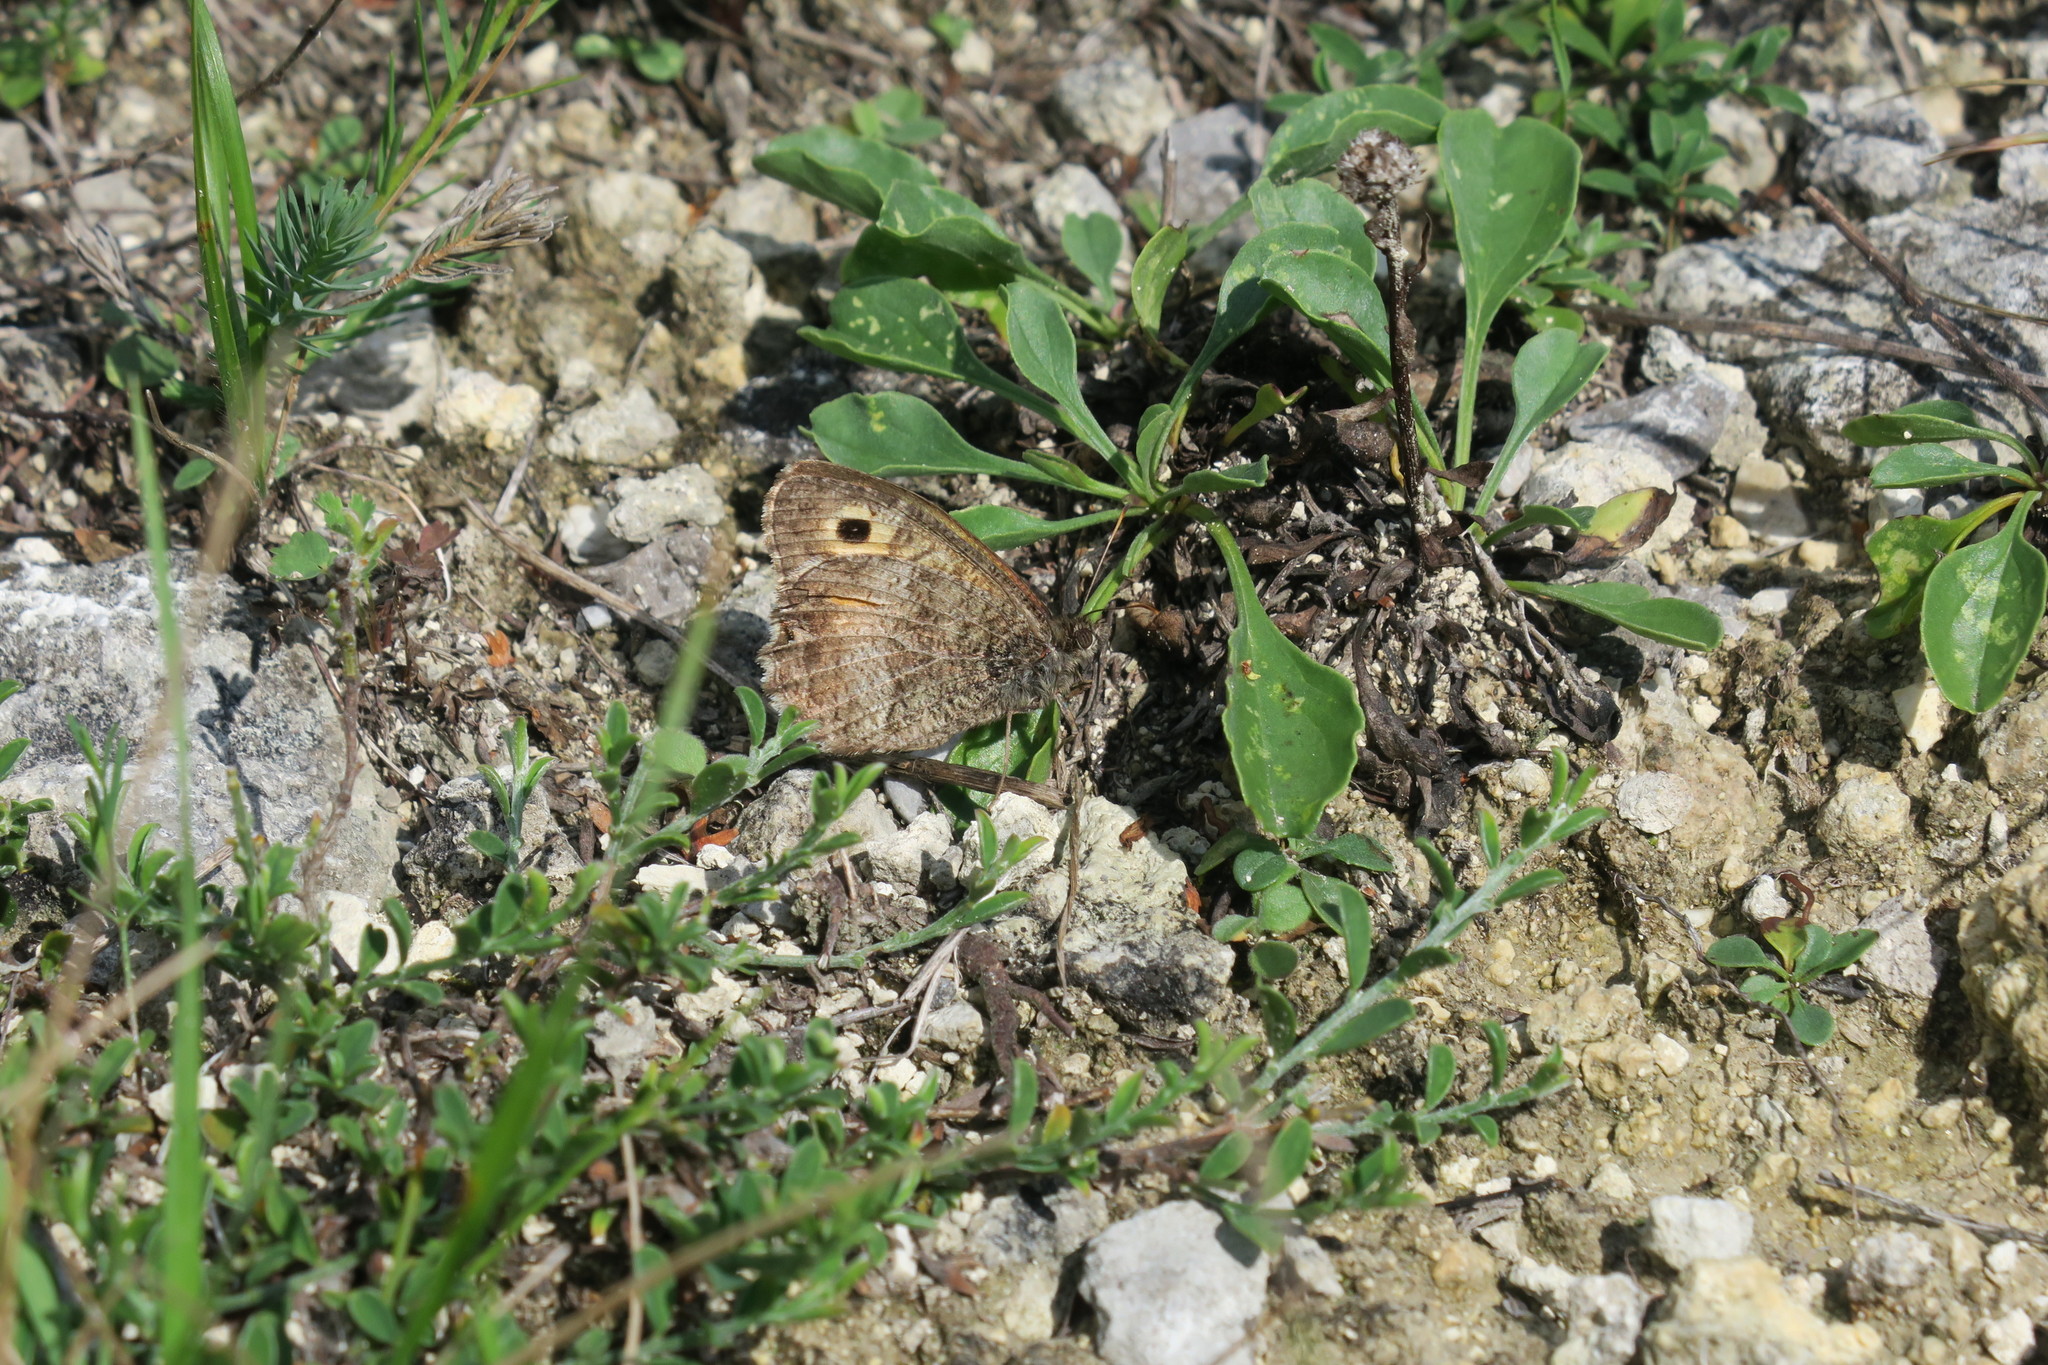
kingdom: Animalia
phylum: Arthropoda
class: Insecta
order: Lepidoptera
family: Nymphalidae
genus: Arethusana
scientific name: Arethusana arethusa
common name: False grayling
